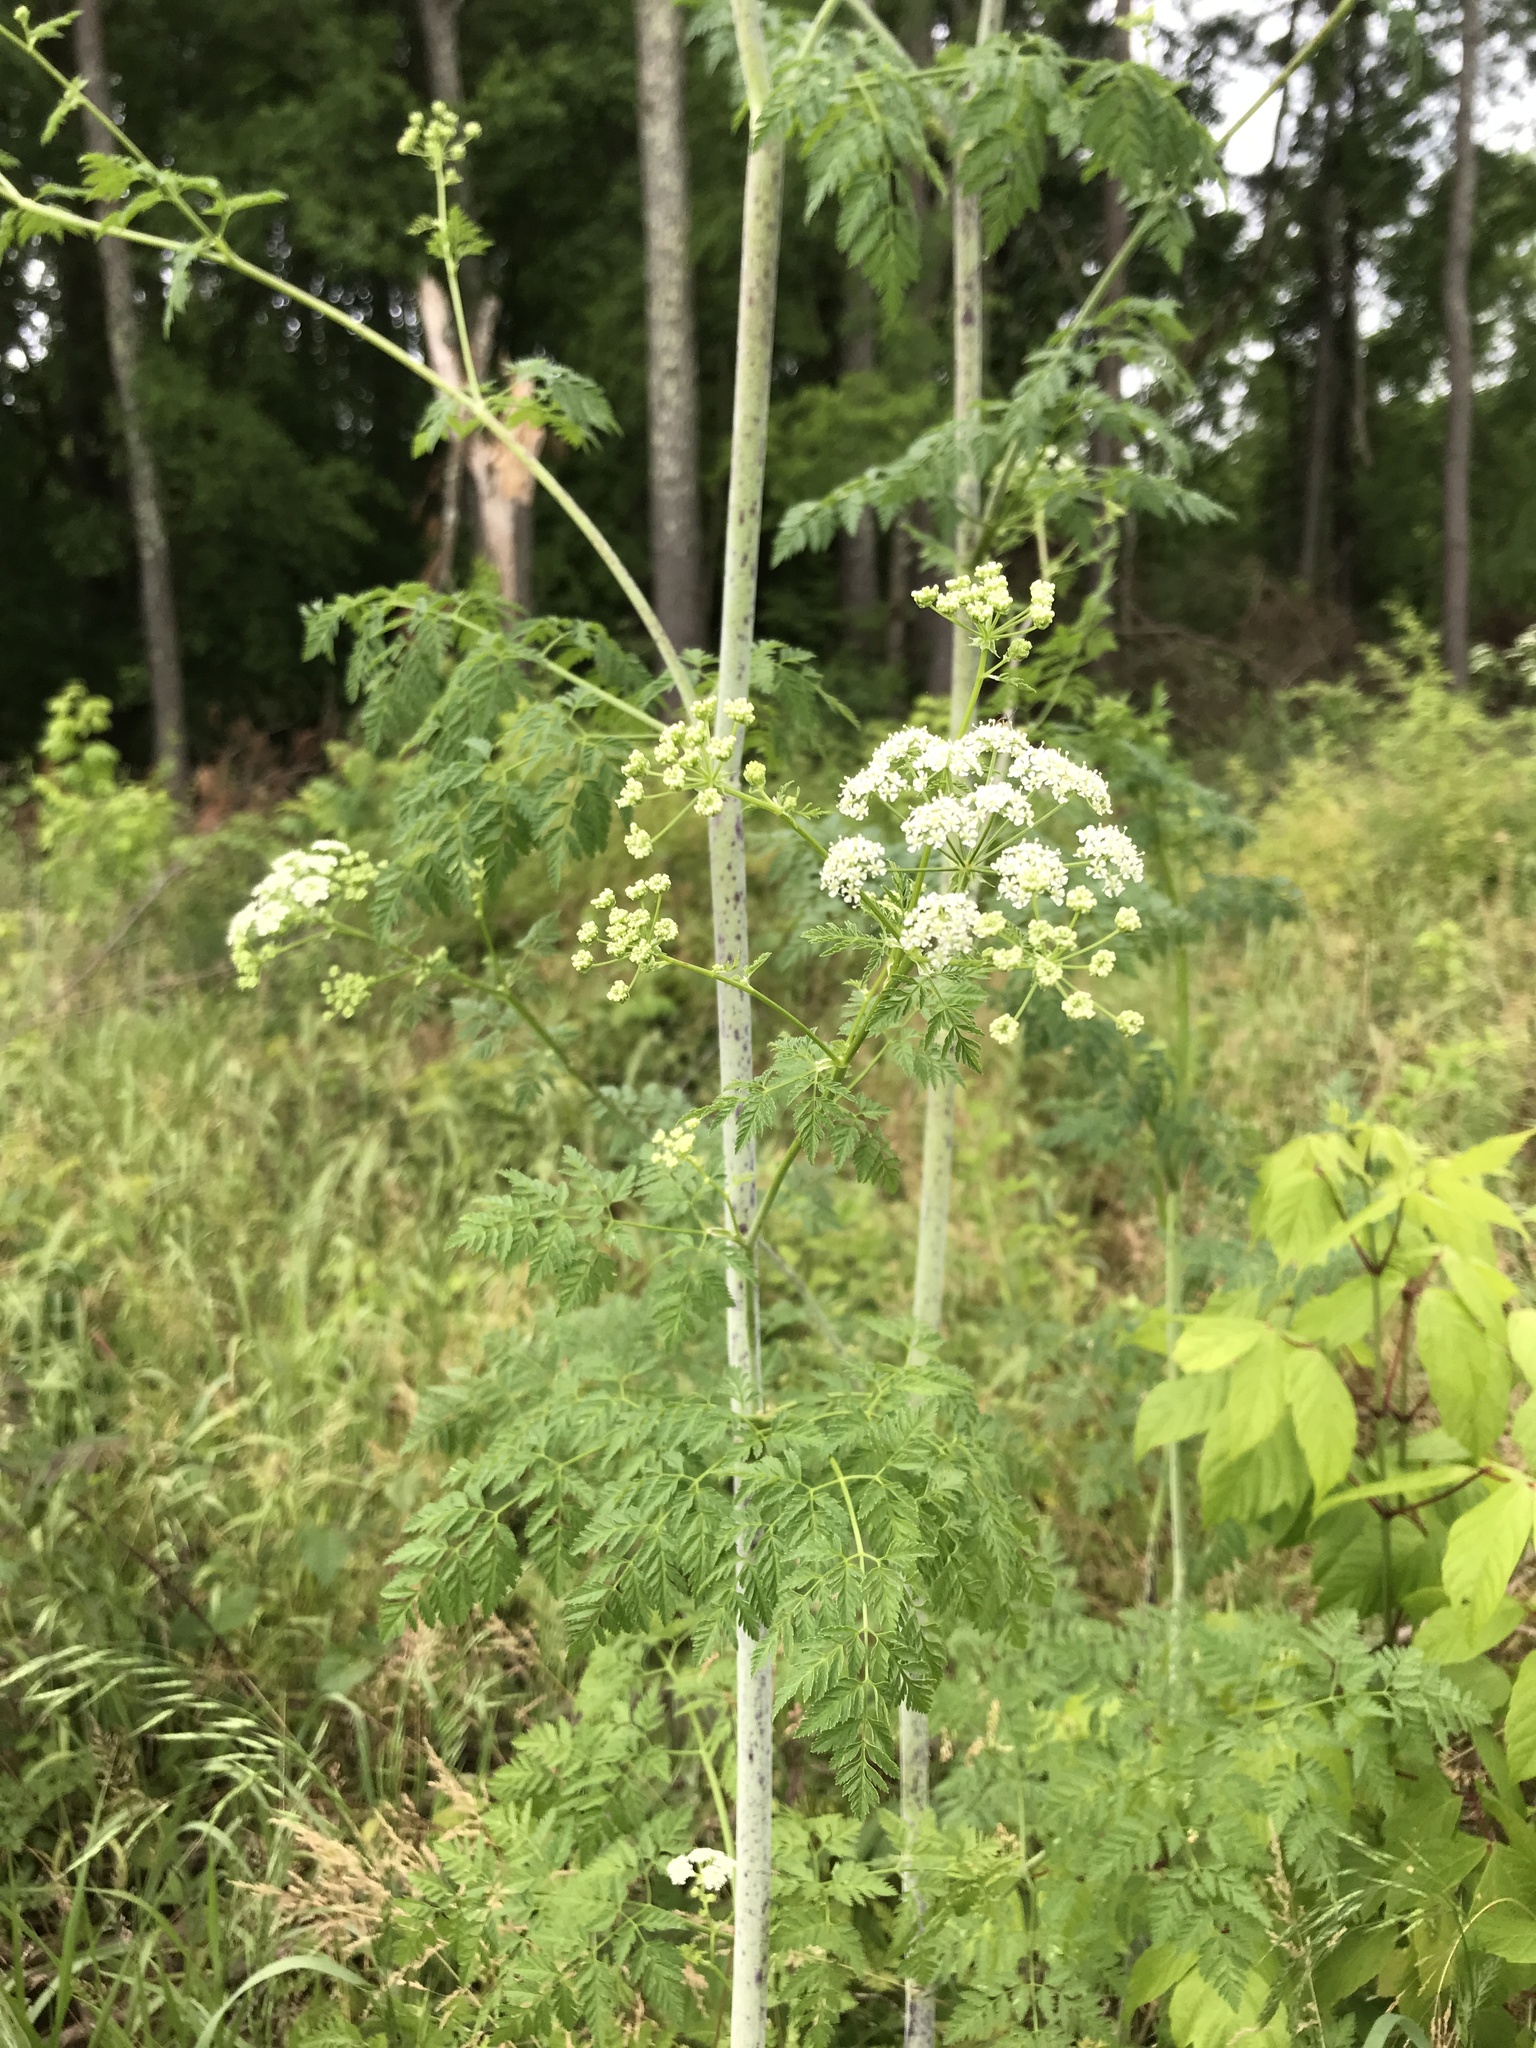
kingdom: Plantae
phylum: Tracheophyta
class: Magnoliopsida
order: Apiales
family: Apiaceae
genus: Conium
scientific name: Conium maculatum
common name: Hemlock
